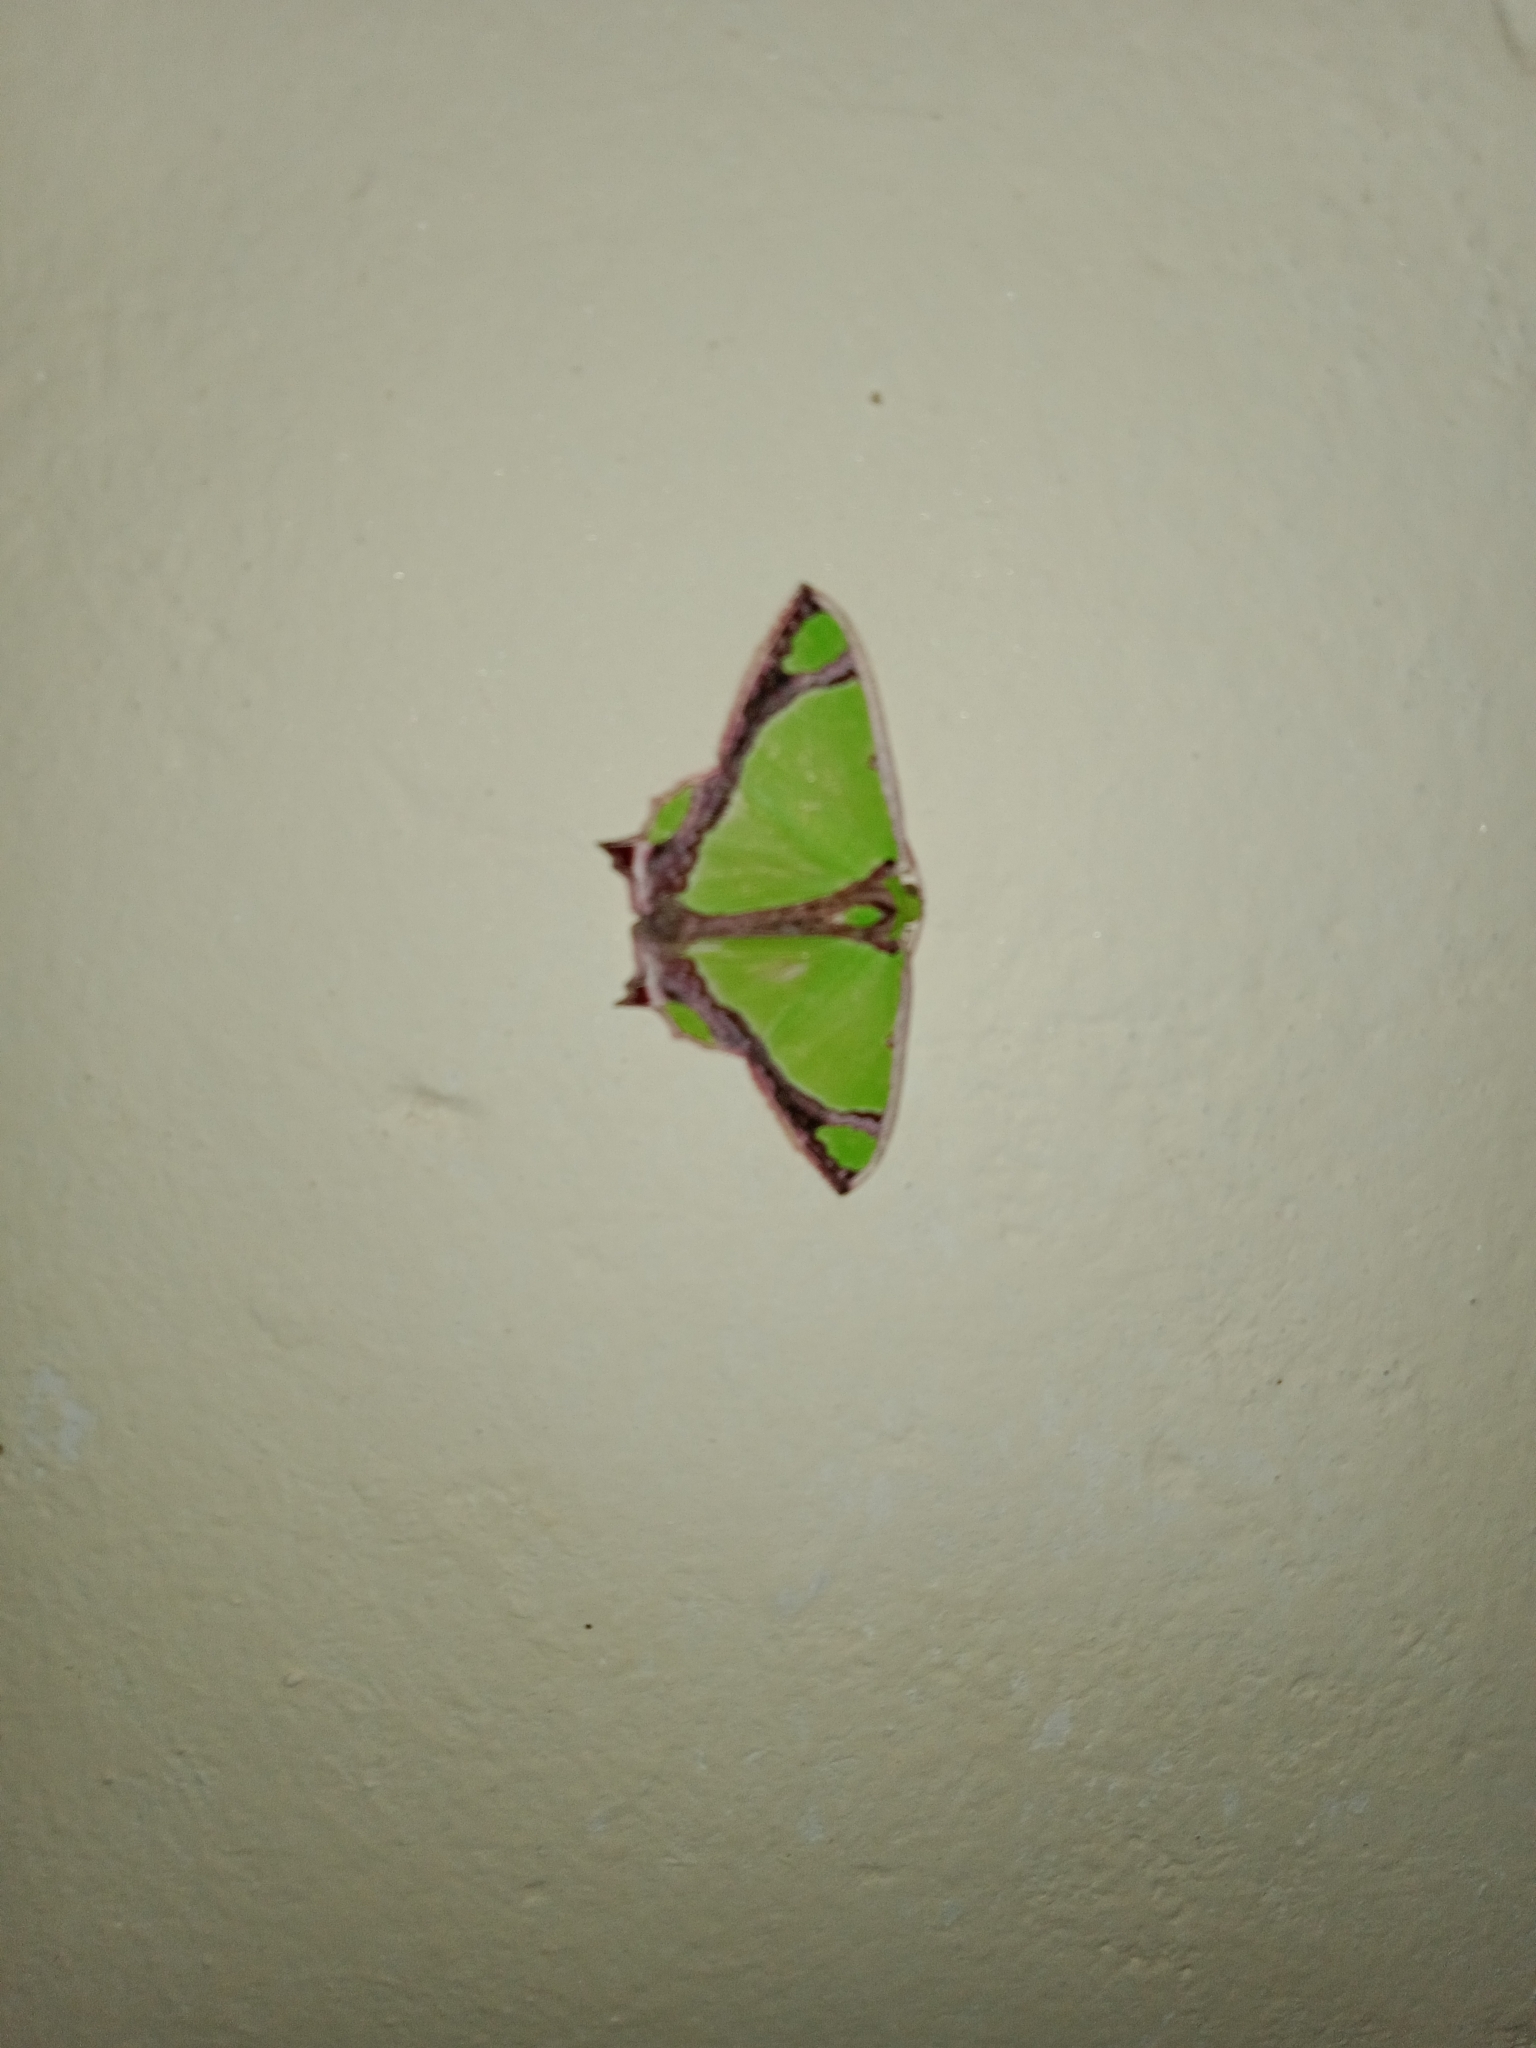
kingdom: Animalia
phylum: Arthropoda
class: Insecta
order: Lepidoptera
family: Geometridae
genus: Agathia
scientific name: Agathia laetata
